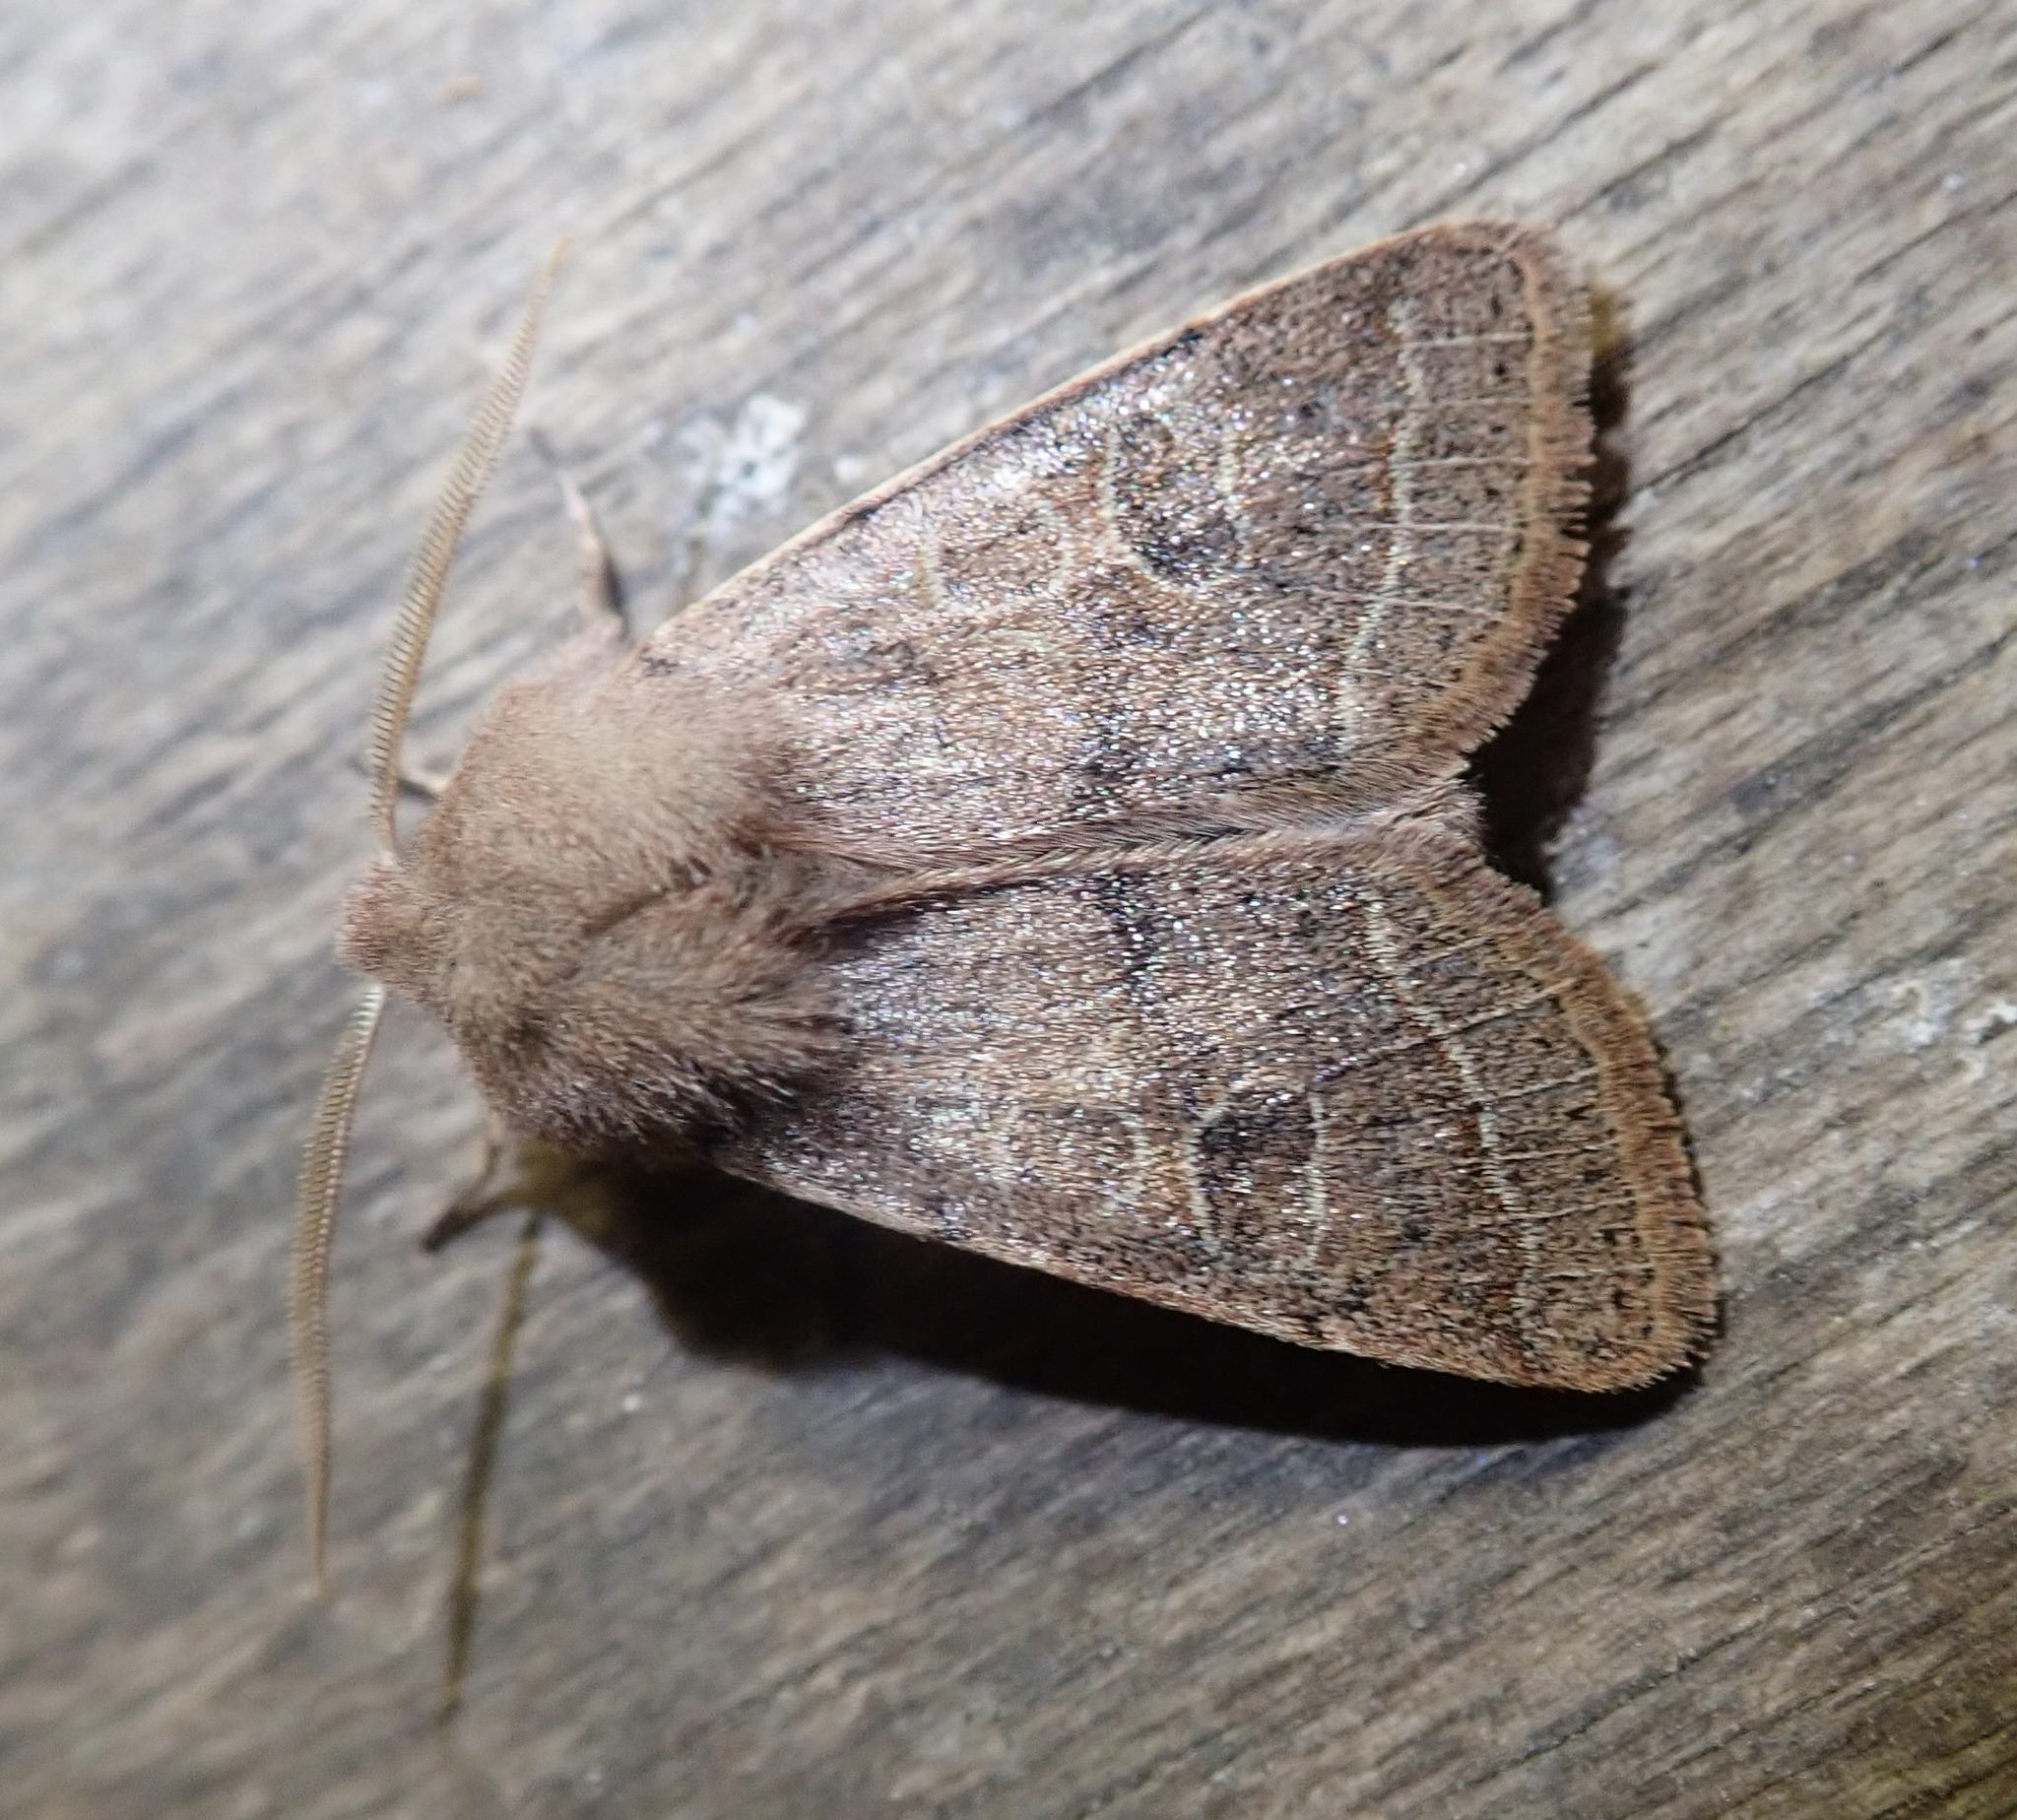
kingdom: Animalia
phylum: Arthropoda
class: Insecta
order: Lepidoptera
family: Noctuidae
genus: Orthosia
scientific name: Orthosia cerasi
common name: Common quaker
